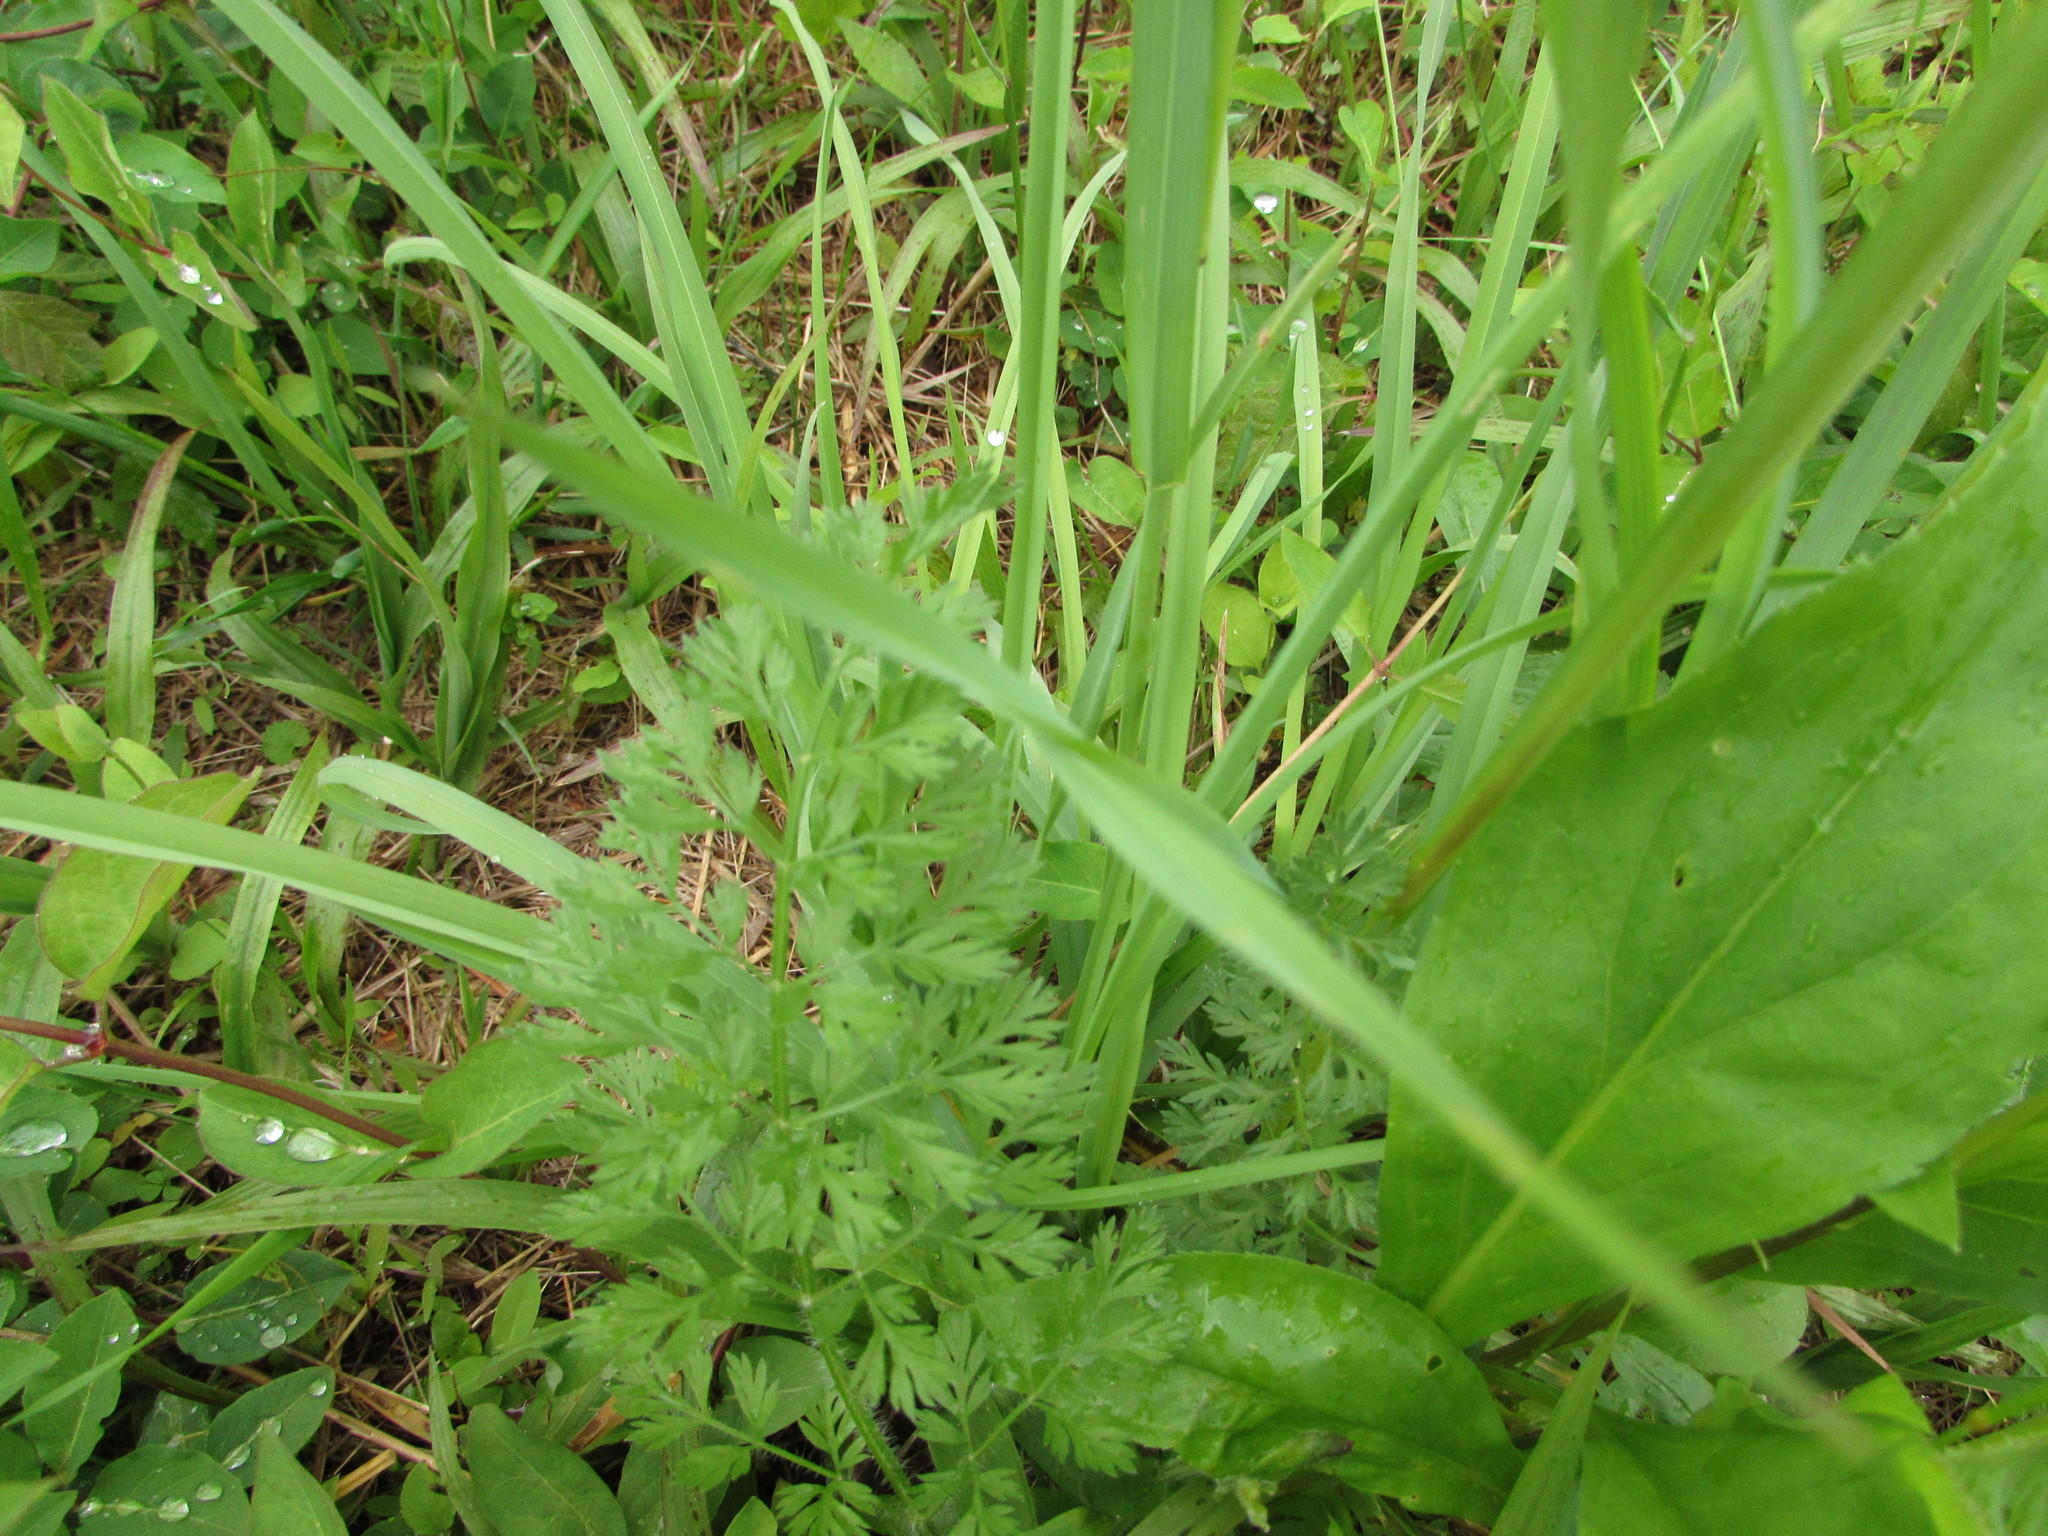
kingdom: Plantae
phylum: Tracheophyta
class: Magnoliopsida
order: Apiales
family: Apiaceae
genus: Daucus
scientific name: Daucus carota
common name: Wild carrot
